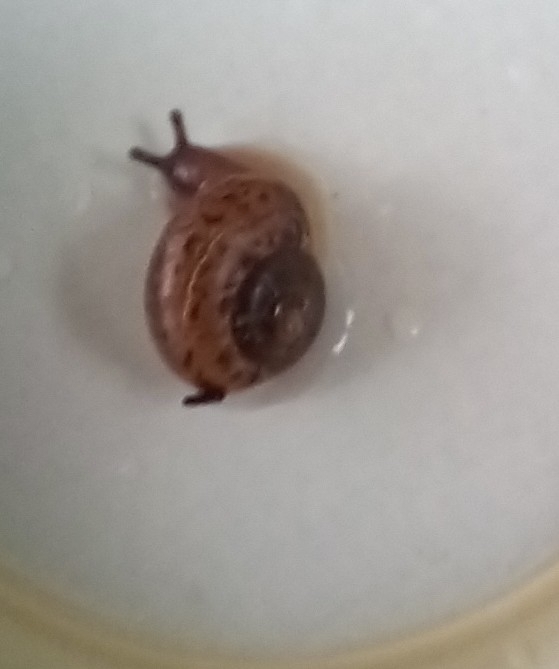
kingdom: Animalia
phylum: Mollusca
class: Gastropoda
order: Stylommatophora
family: Camaenidae
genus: Fruticicola
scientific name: Fruticicola fruticum
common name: Bush snail
